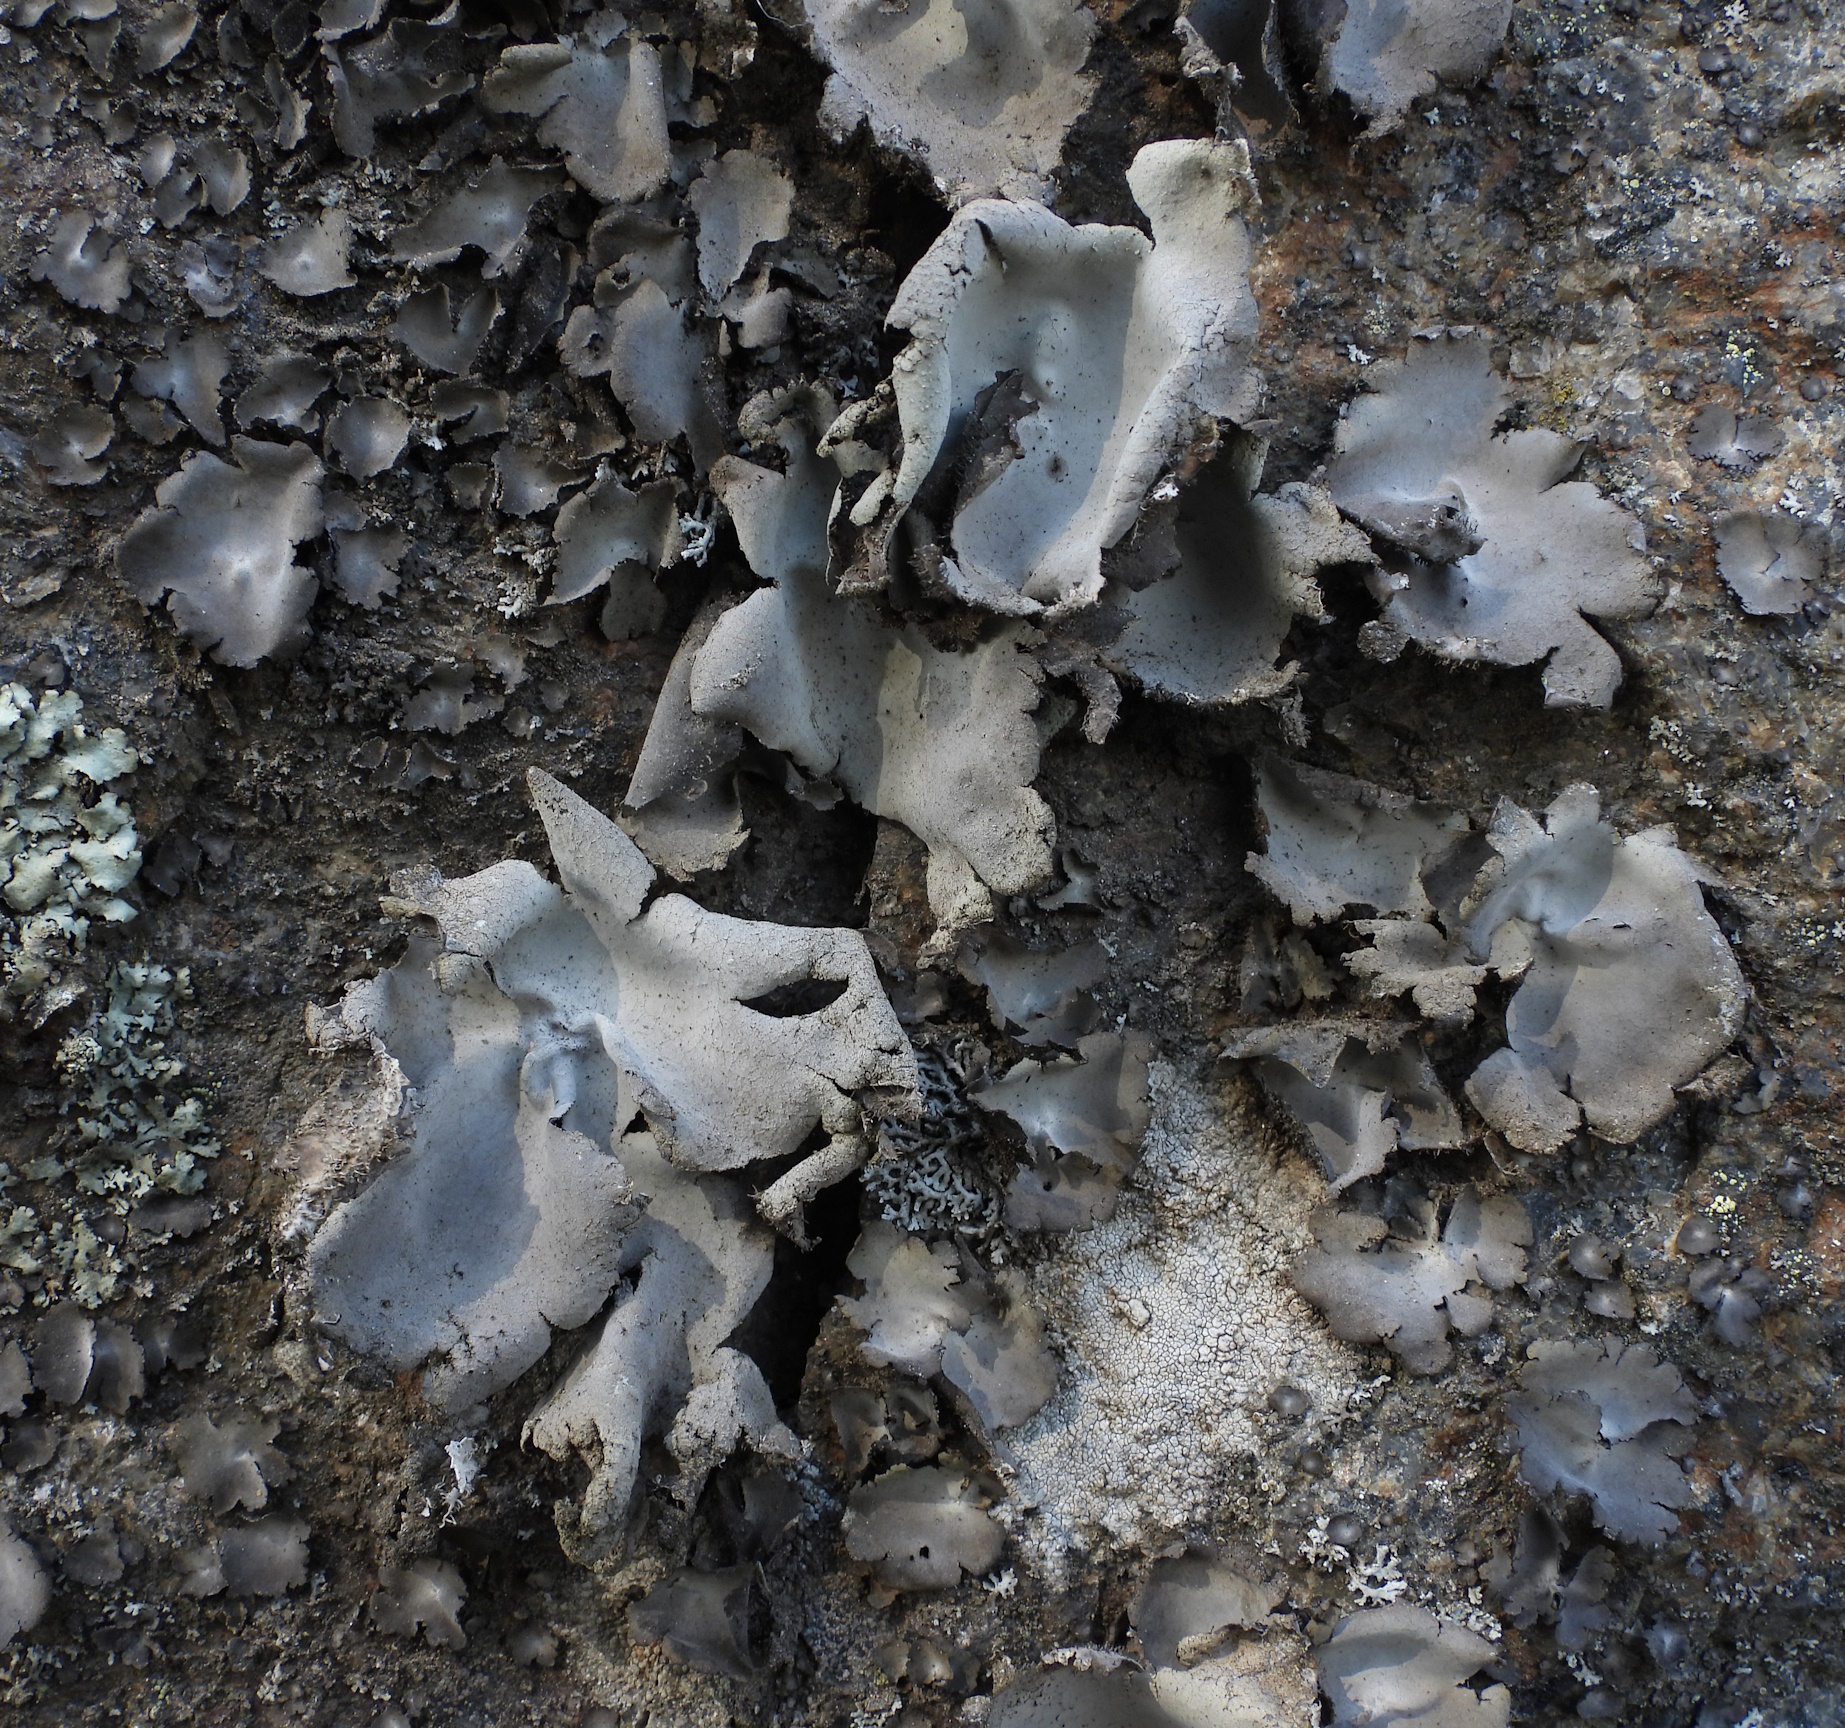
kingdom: Fungi
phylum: Ascomycota
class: Lecanoromycetes
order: Umbilicariales
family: Umbilicariaceae
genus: Umbilicaria
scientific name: Umbilicaria hirsuta
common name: Granulating rocktripe lichen
